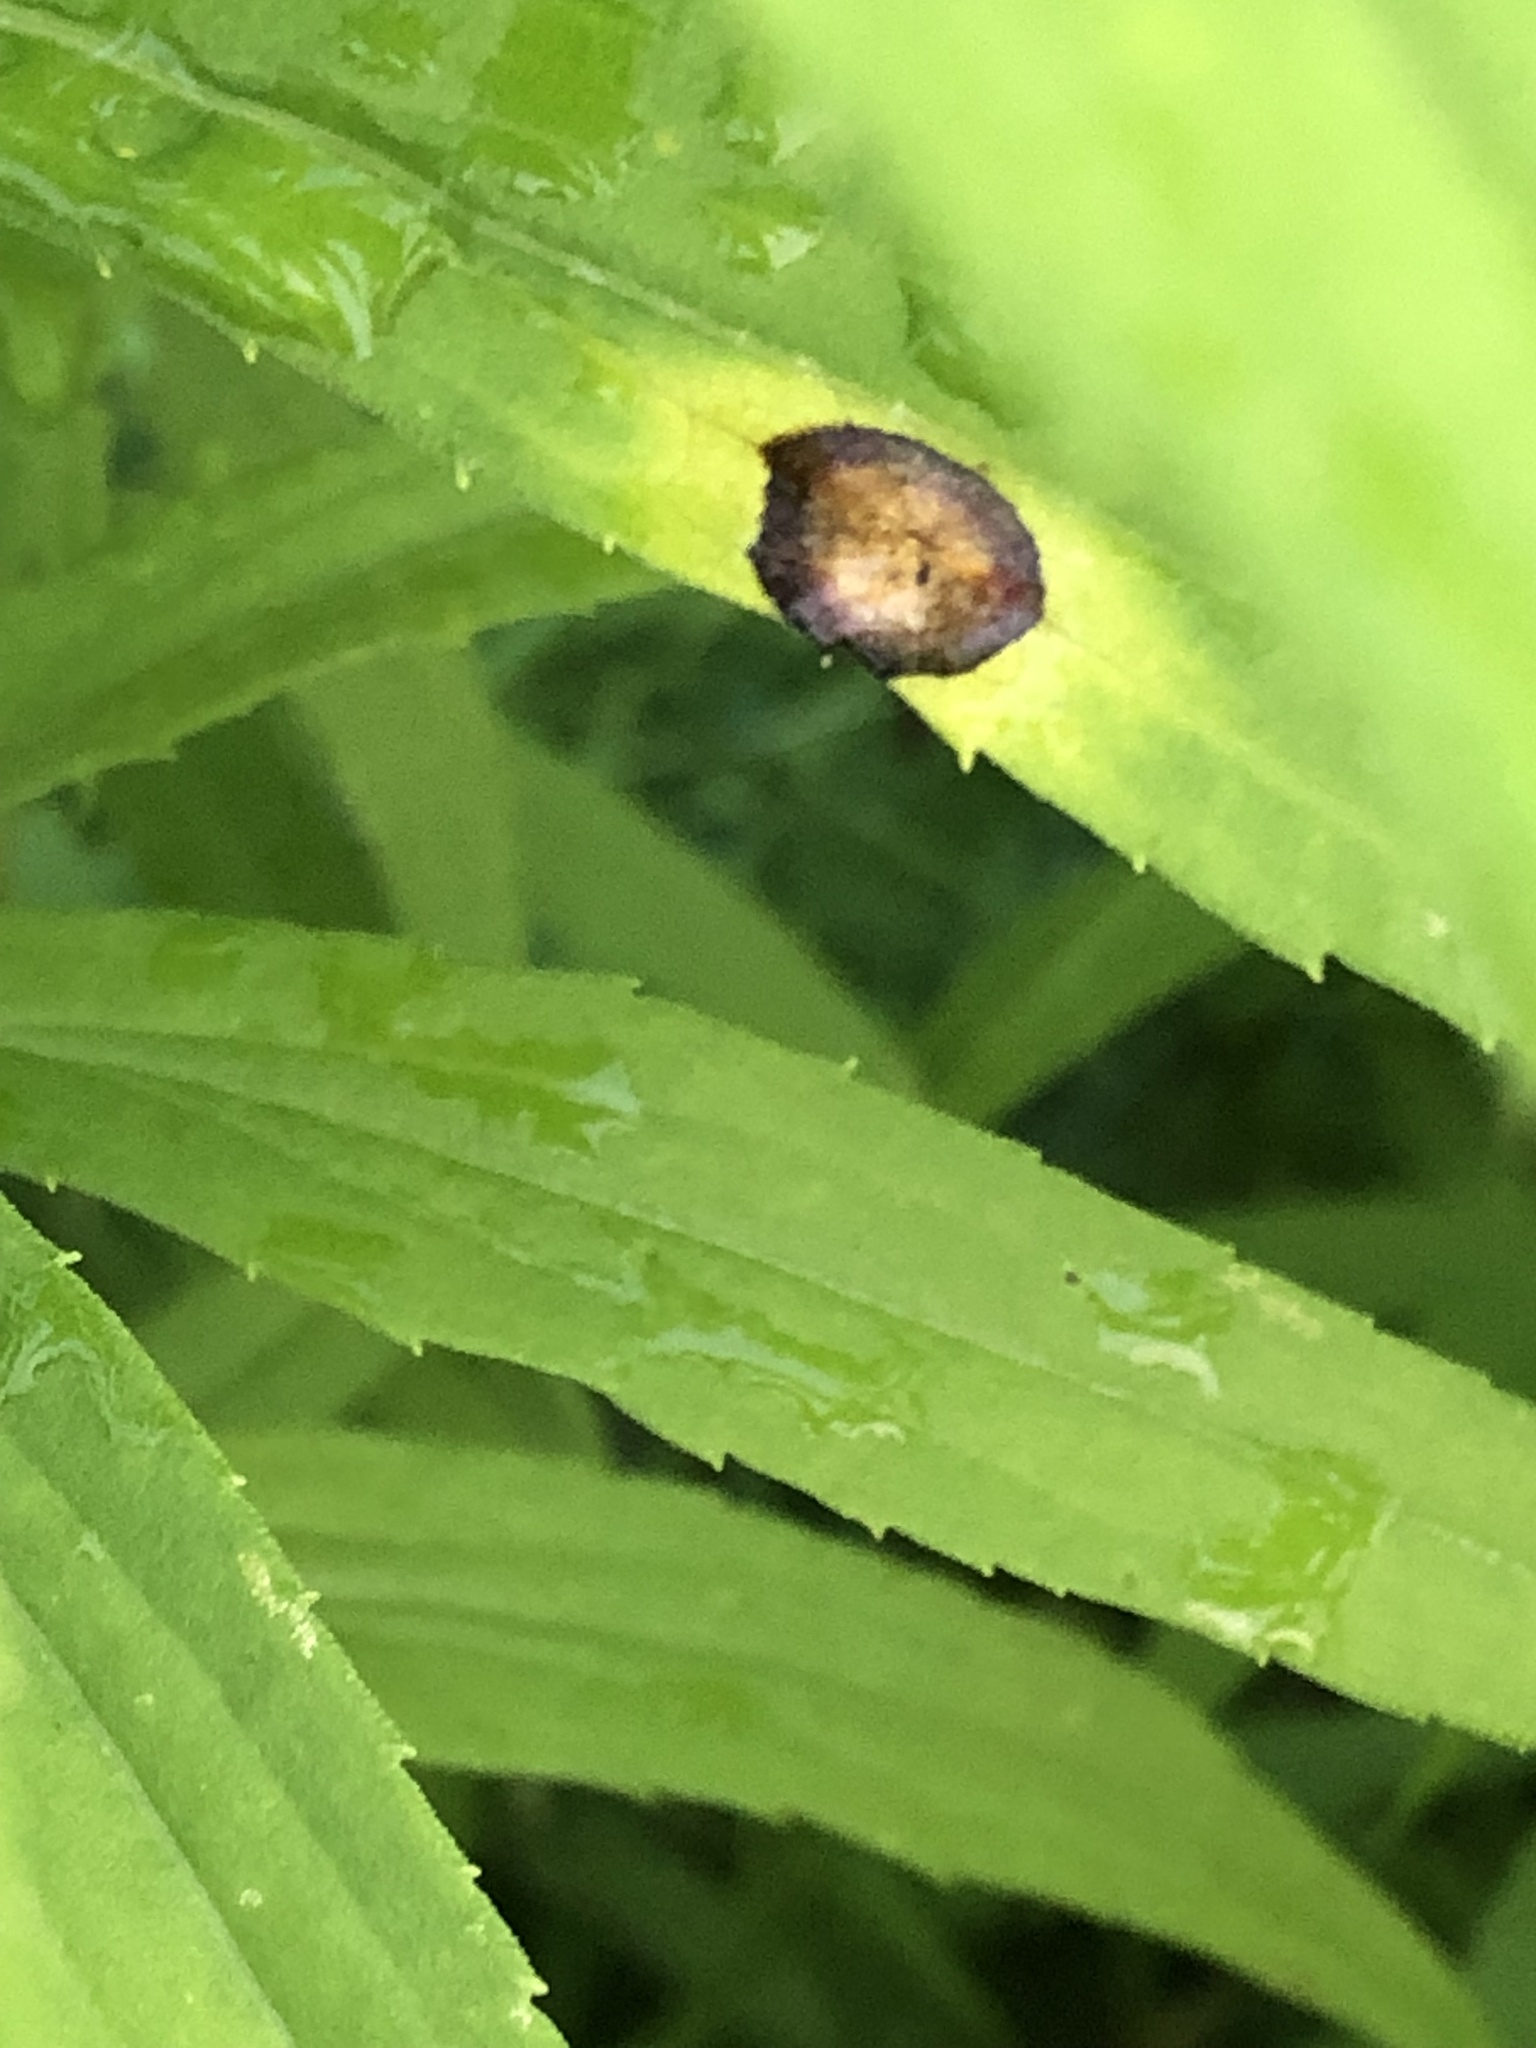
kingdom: Animalia
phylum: Arthropoda
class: Insecta
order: Diptera
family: Cecidomyiidae
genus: Asteromyia
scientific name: Asteromyia carbonifera
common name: Carbonifera goldenrod gall midge
